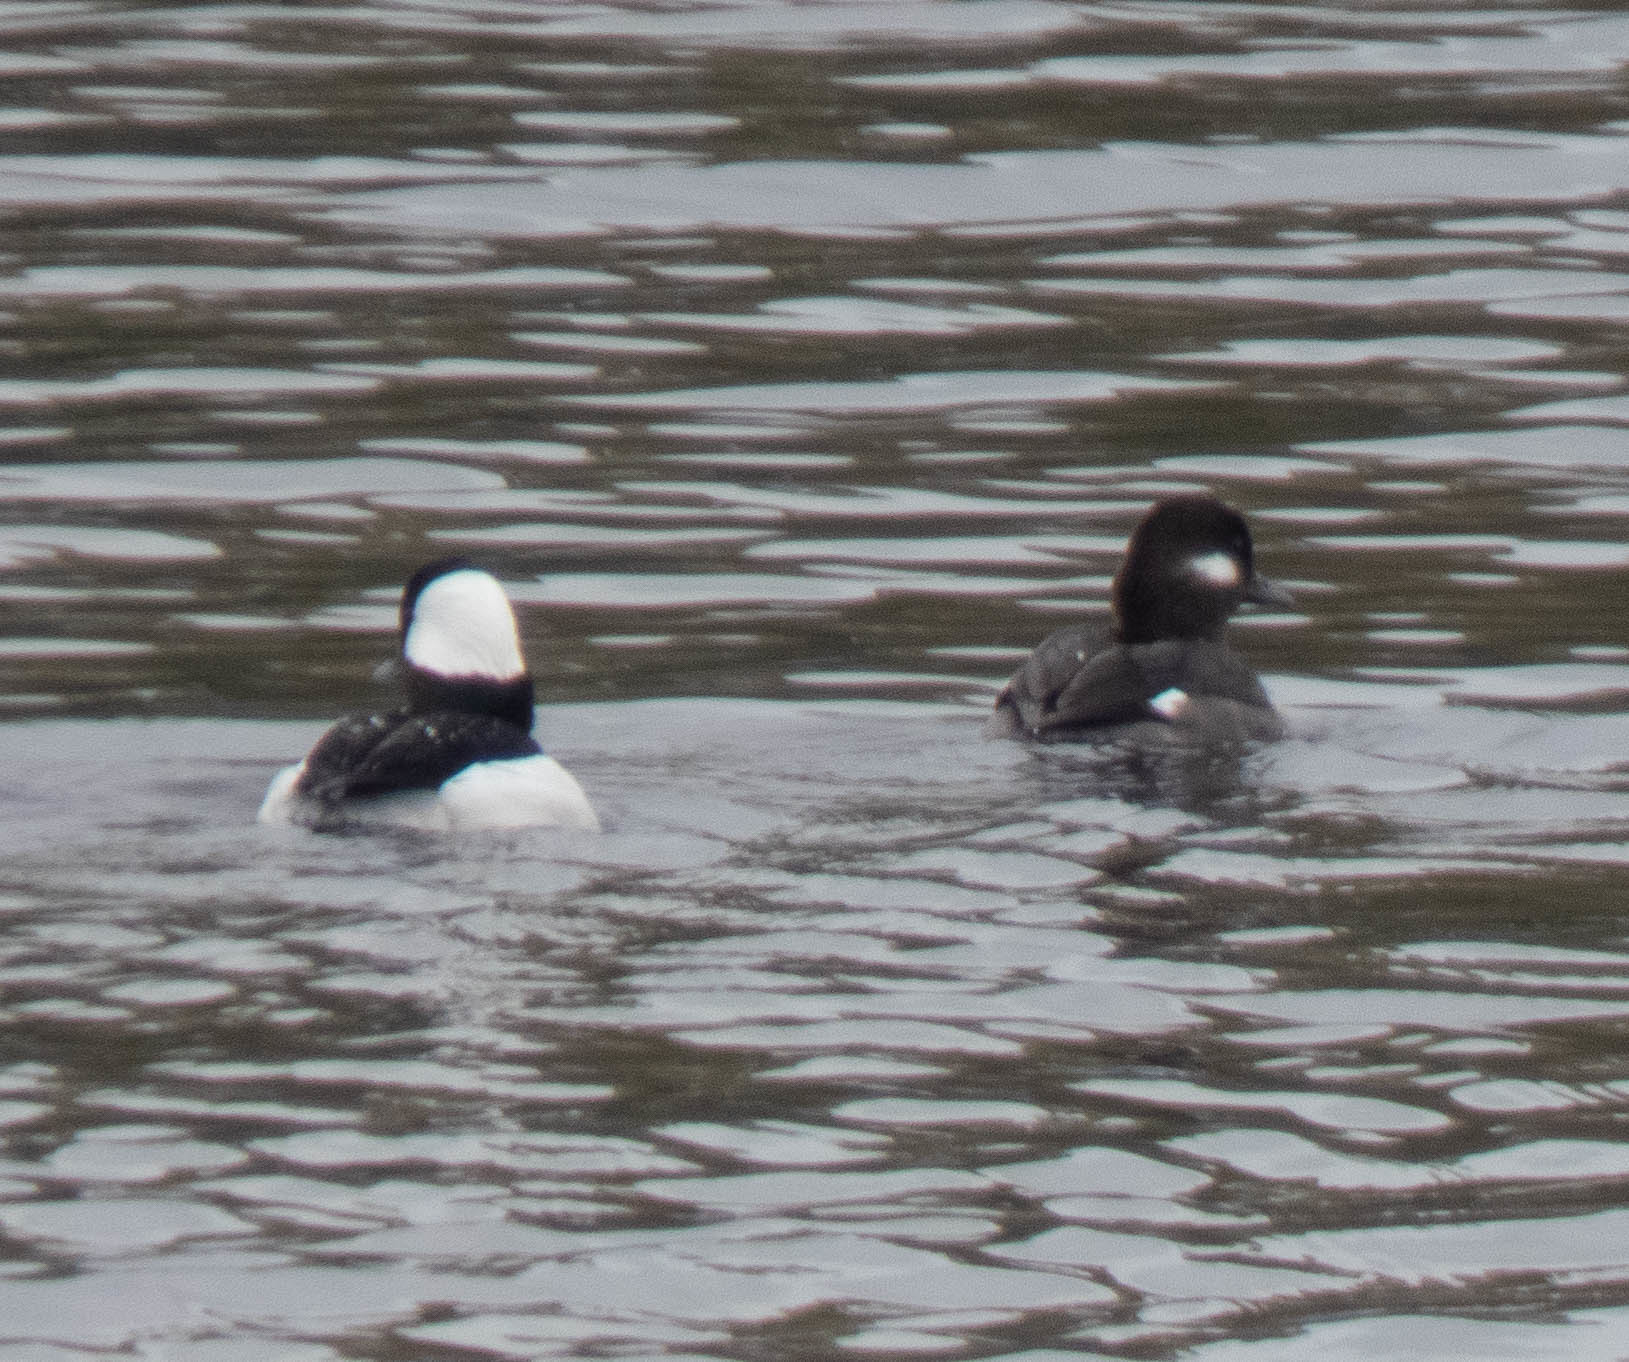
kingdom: Animalia
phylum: Chordata
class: Aves
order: Anseriformes
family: Anatidae
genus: Bucephala
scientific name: Bucephala albeola
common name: Bufflehead
